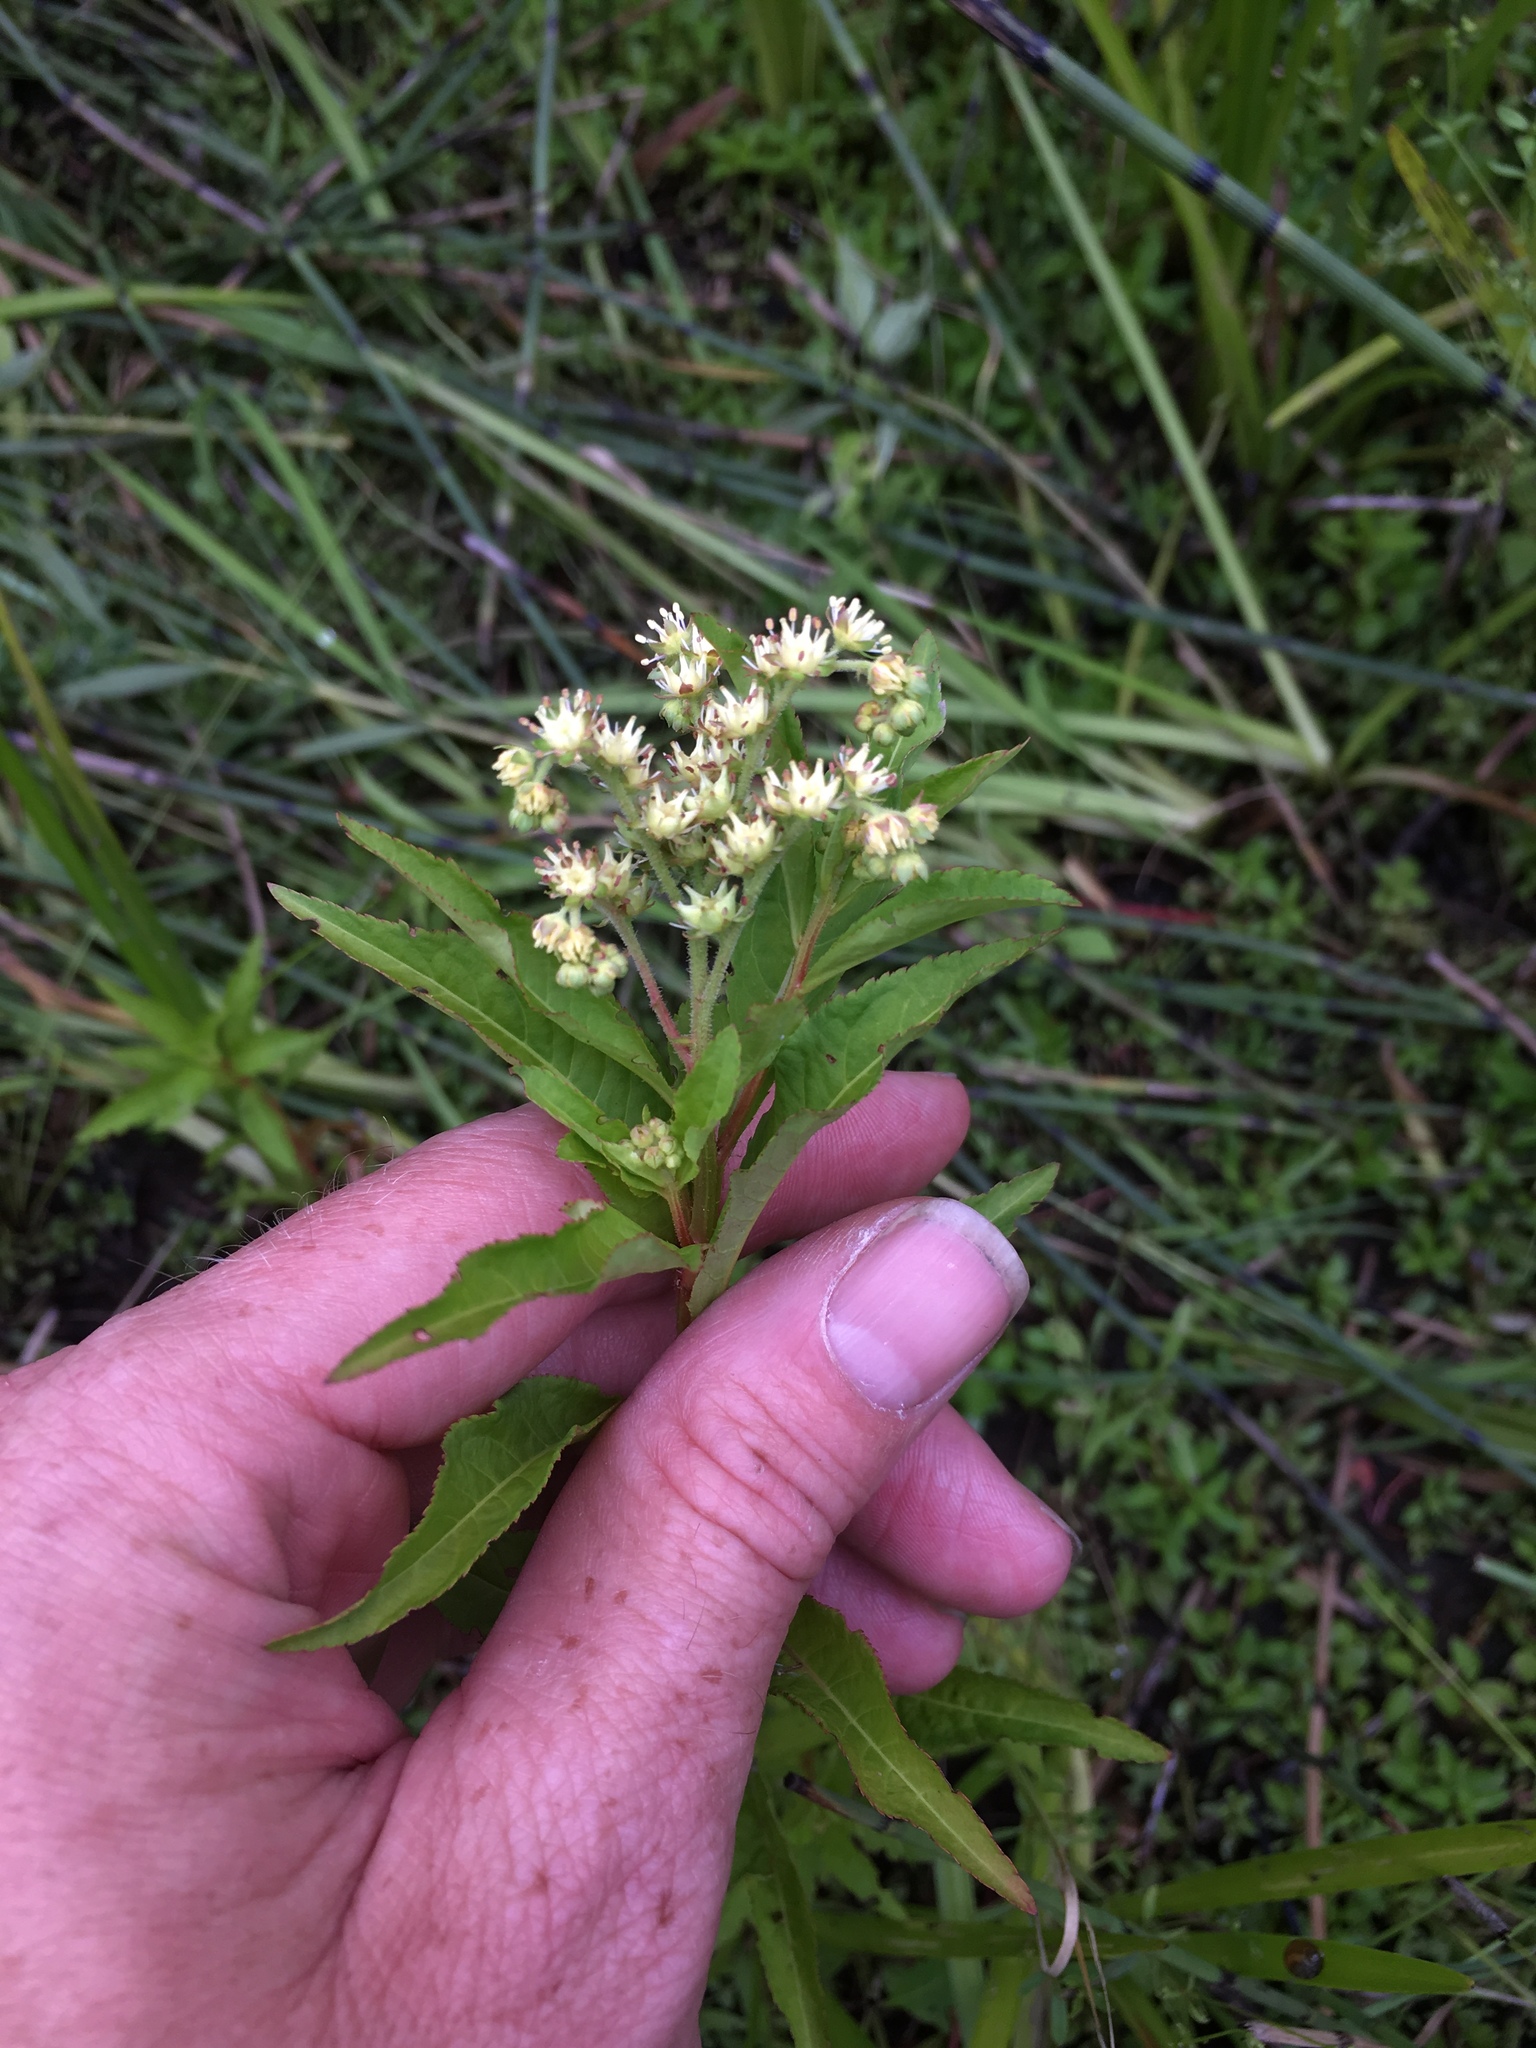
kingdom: Plantae
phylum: Tracheophyta
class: Magnoliopsida
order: Saxifragales
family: Penthoraceae
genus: Penthorum
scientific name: Penthorum sedoides
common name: Ditch stonecrop
